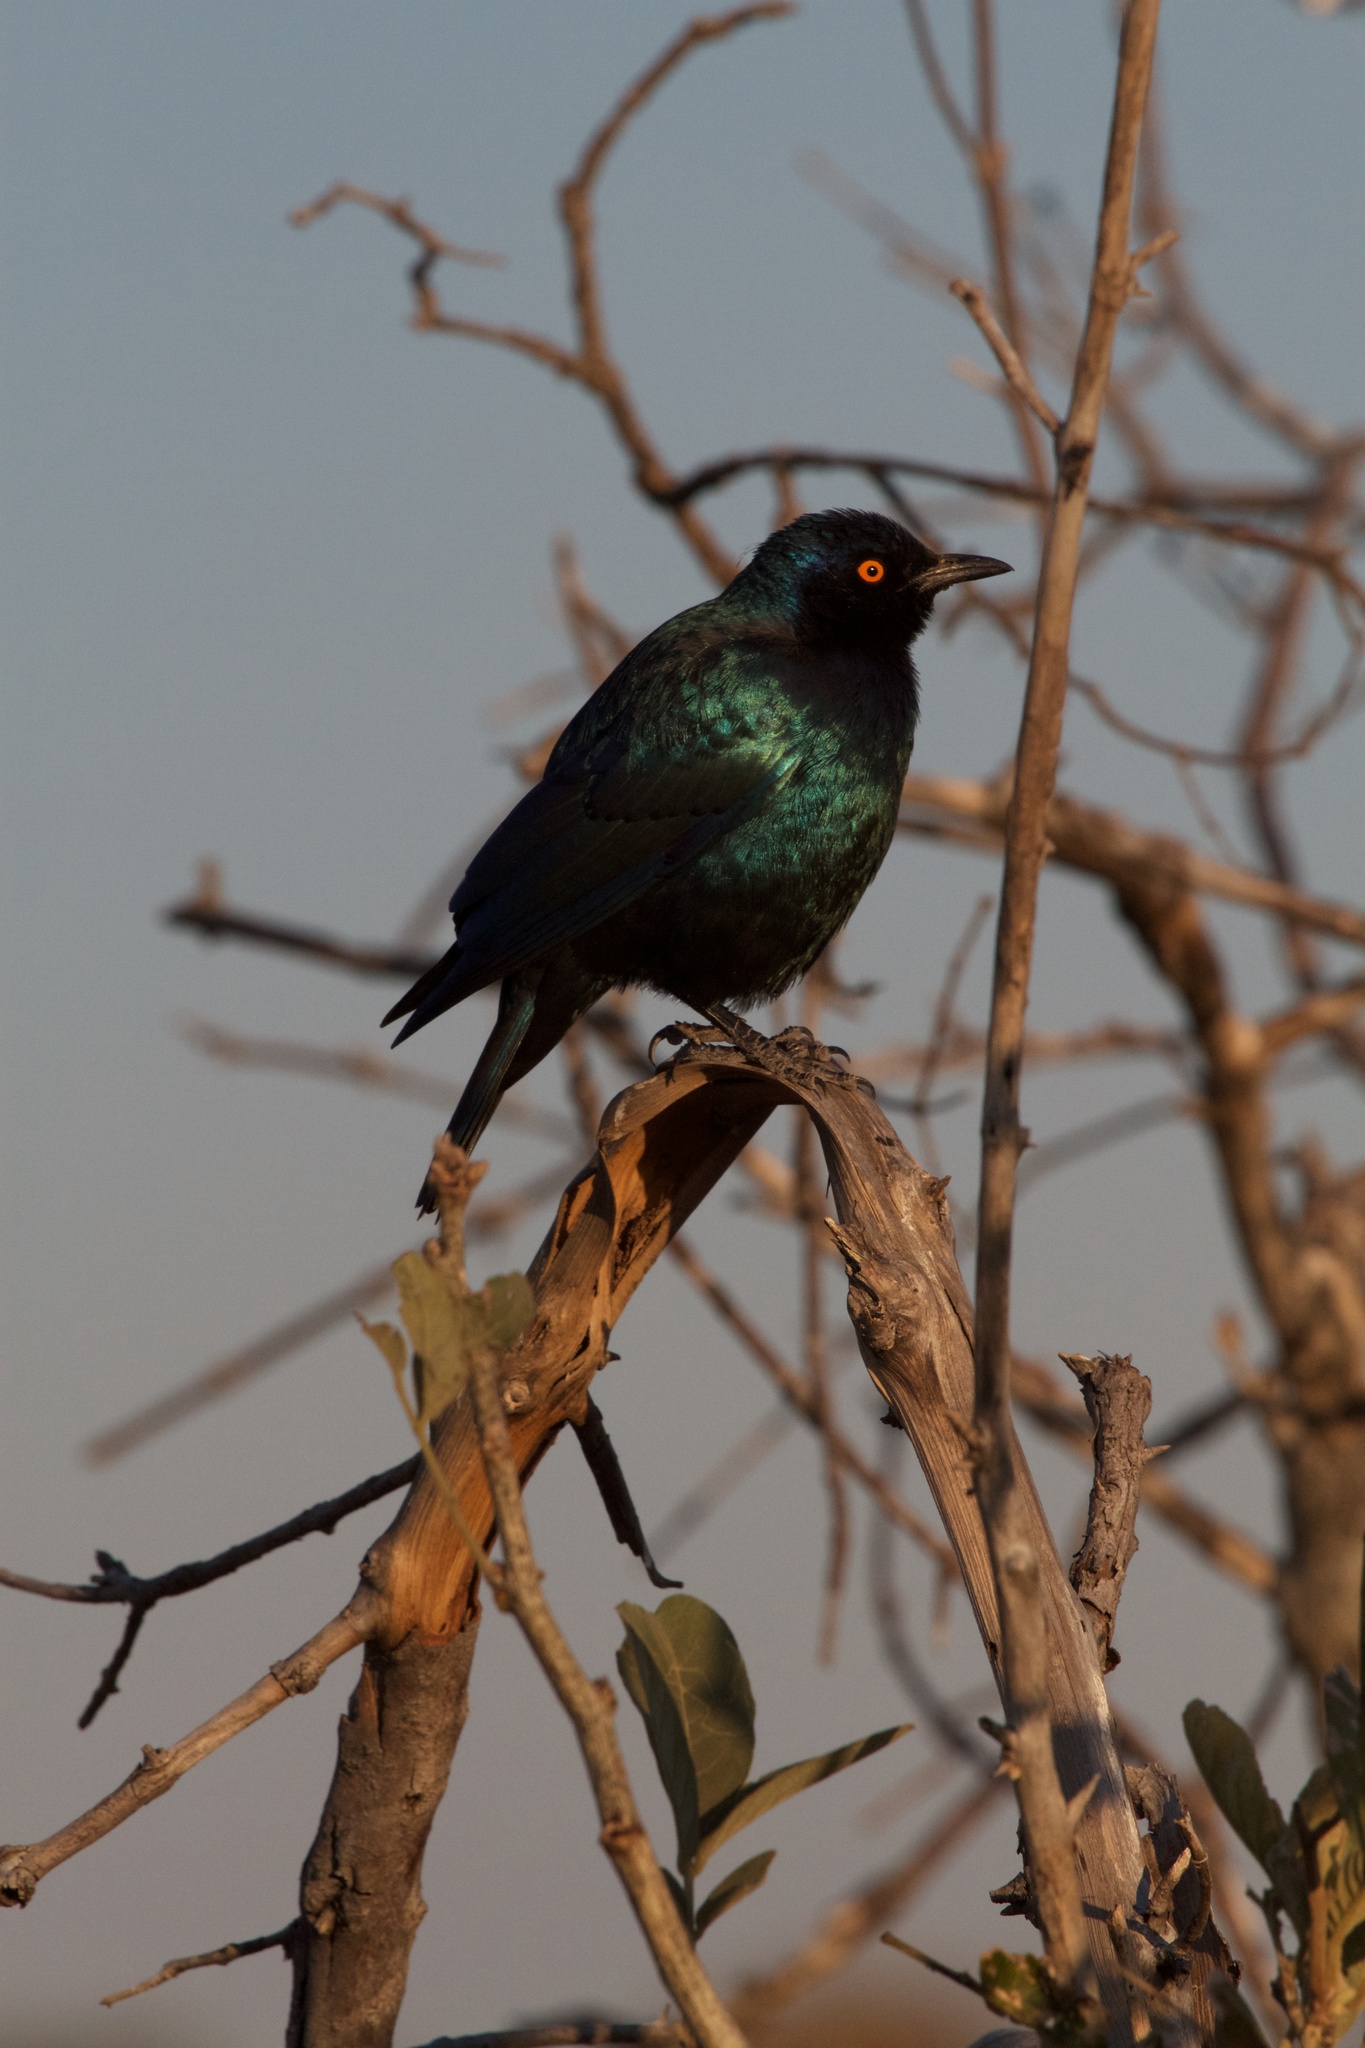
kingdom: Animalia
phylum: Chordata
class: Aves
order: Passeriformes
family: Sturnidae
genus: Lamprotornis
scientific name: Lamprotornis nitens
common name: Cape starling
